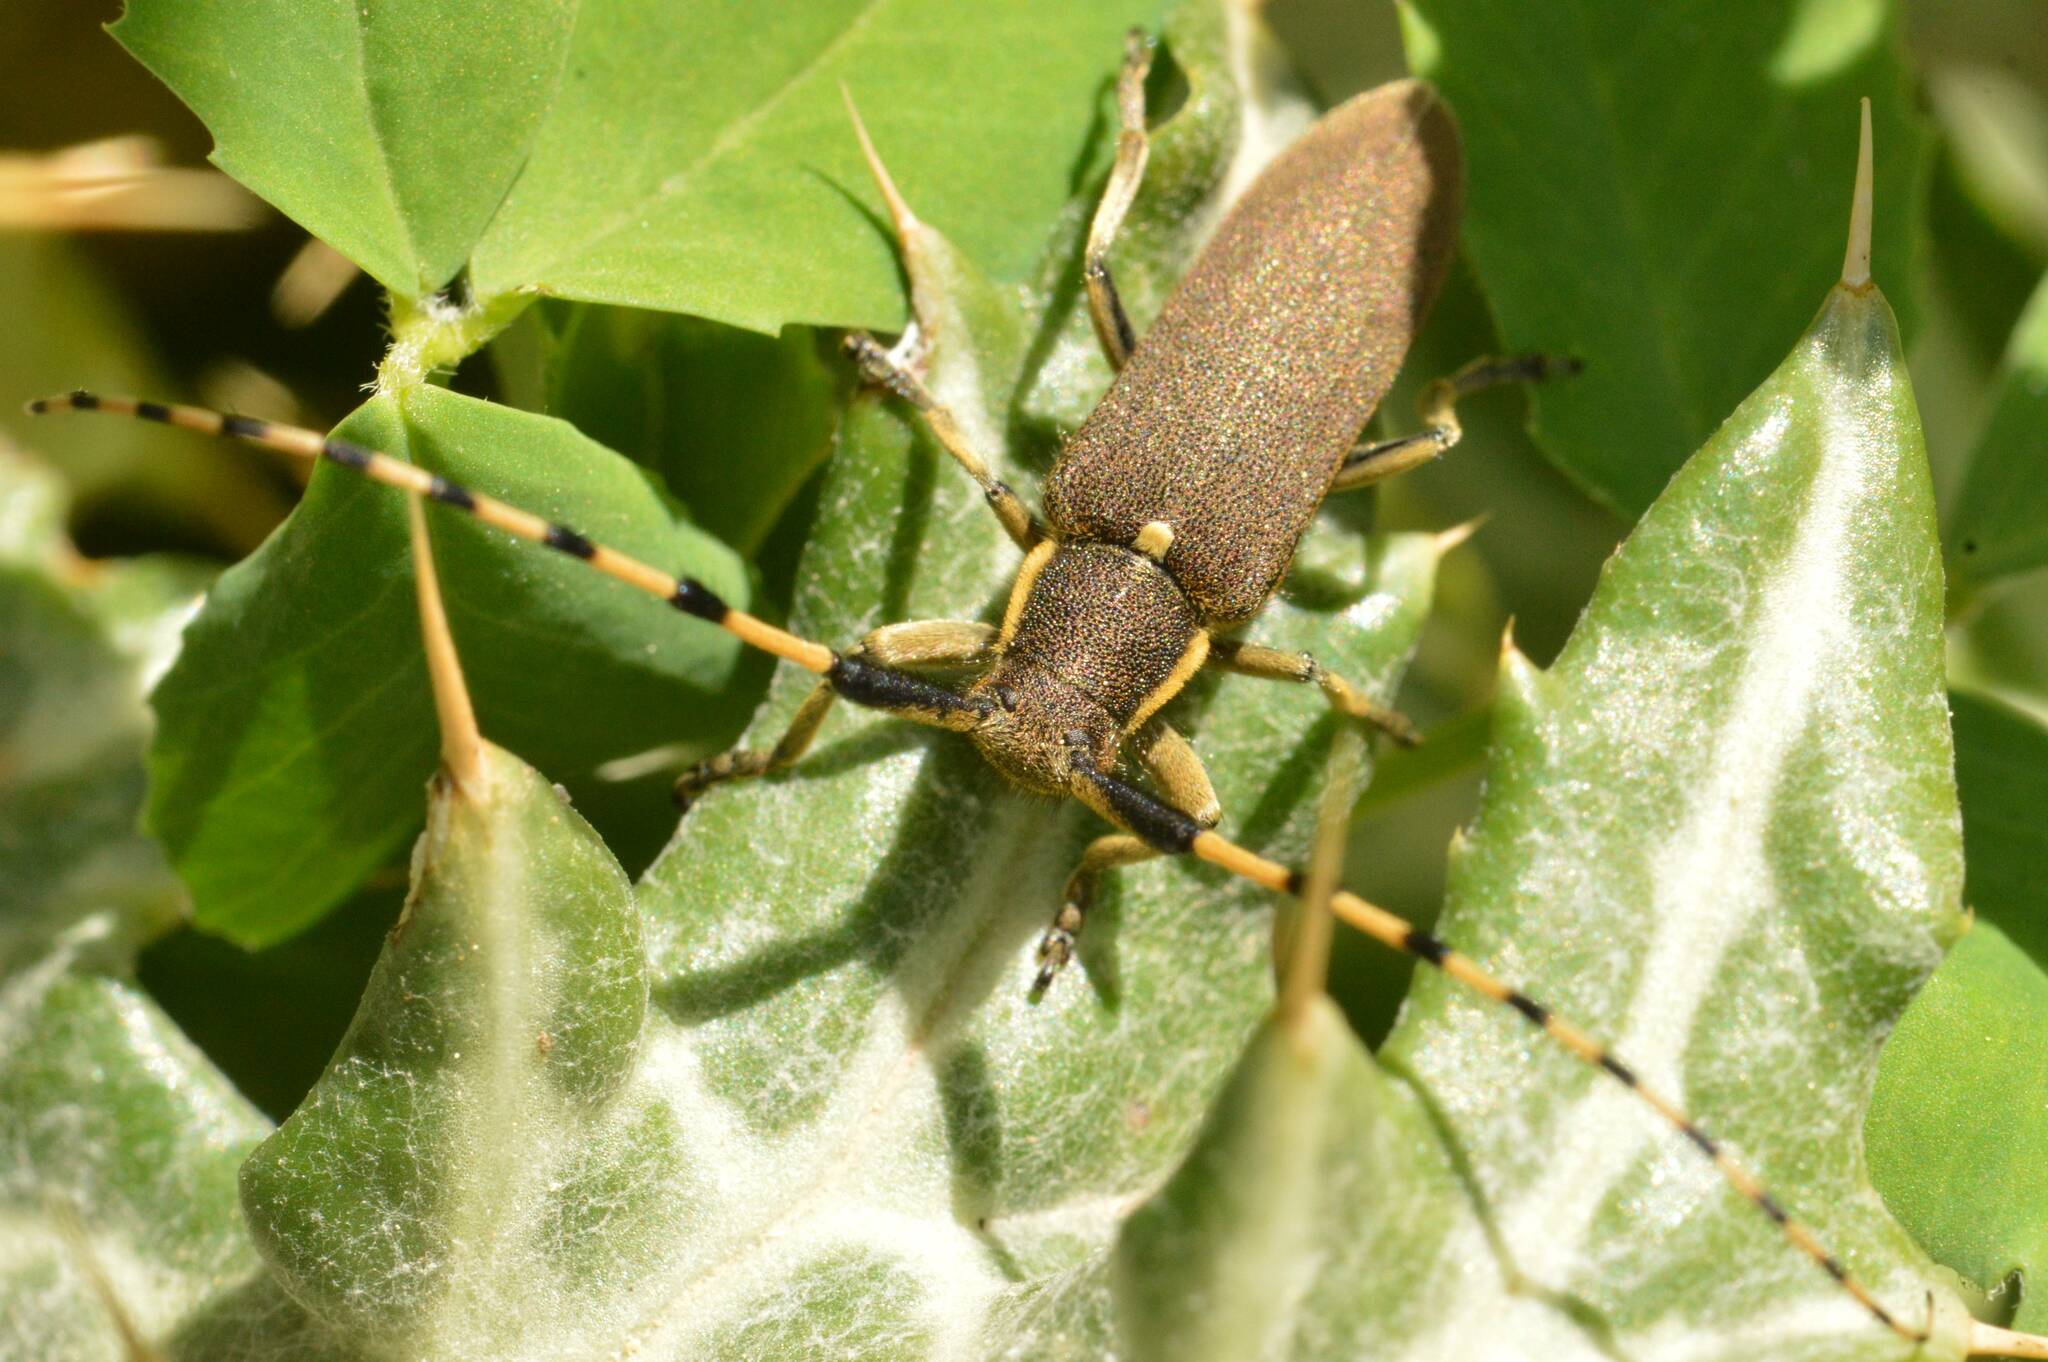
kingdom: Animalia
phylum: Arthropoda
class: Insecta
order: Coleoptera
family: Cerambycidae
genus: Agapanthia
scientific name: Agapanthia annularis
